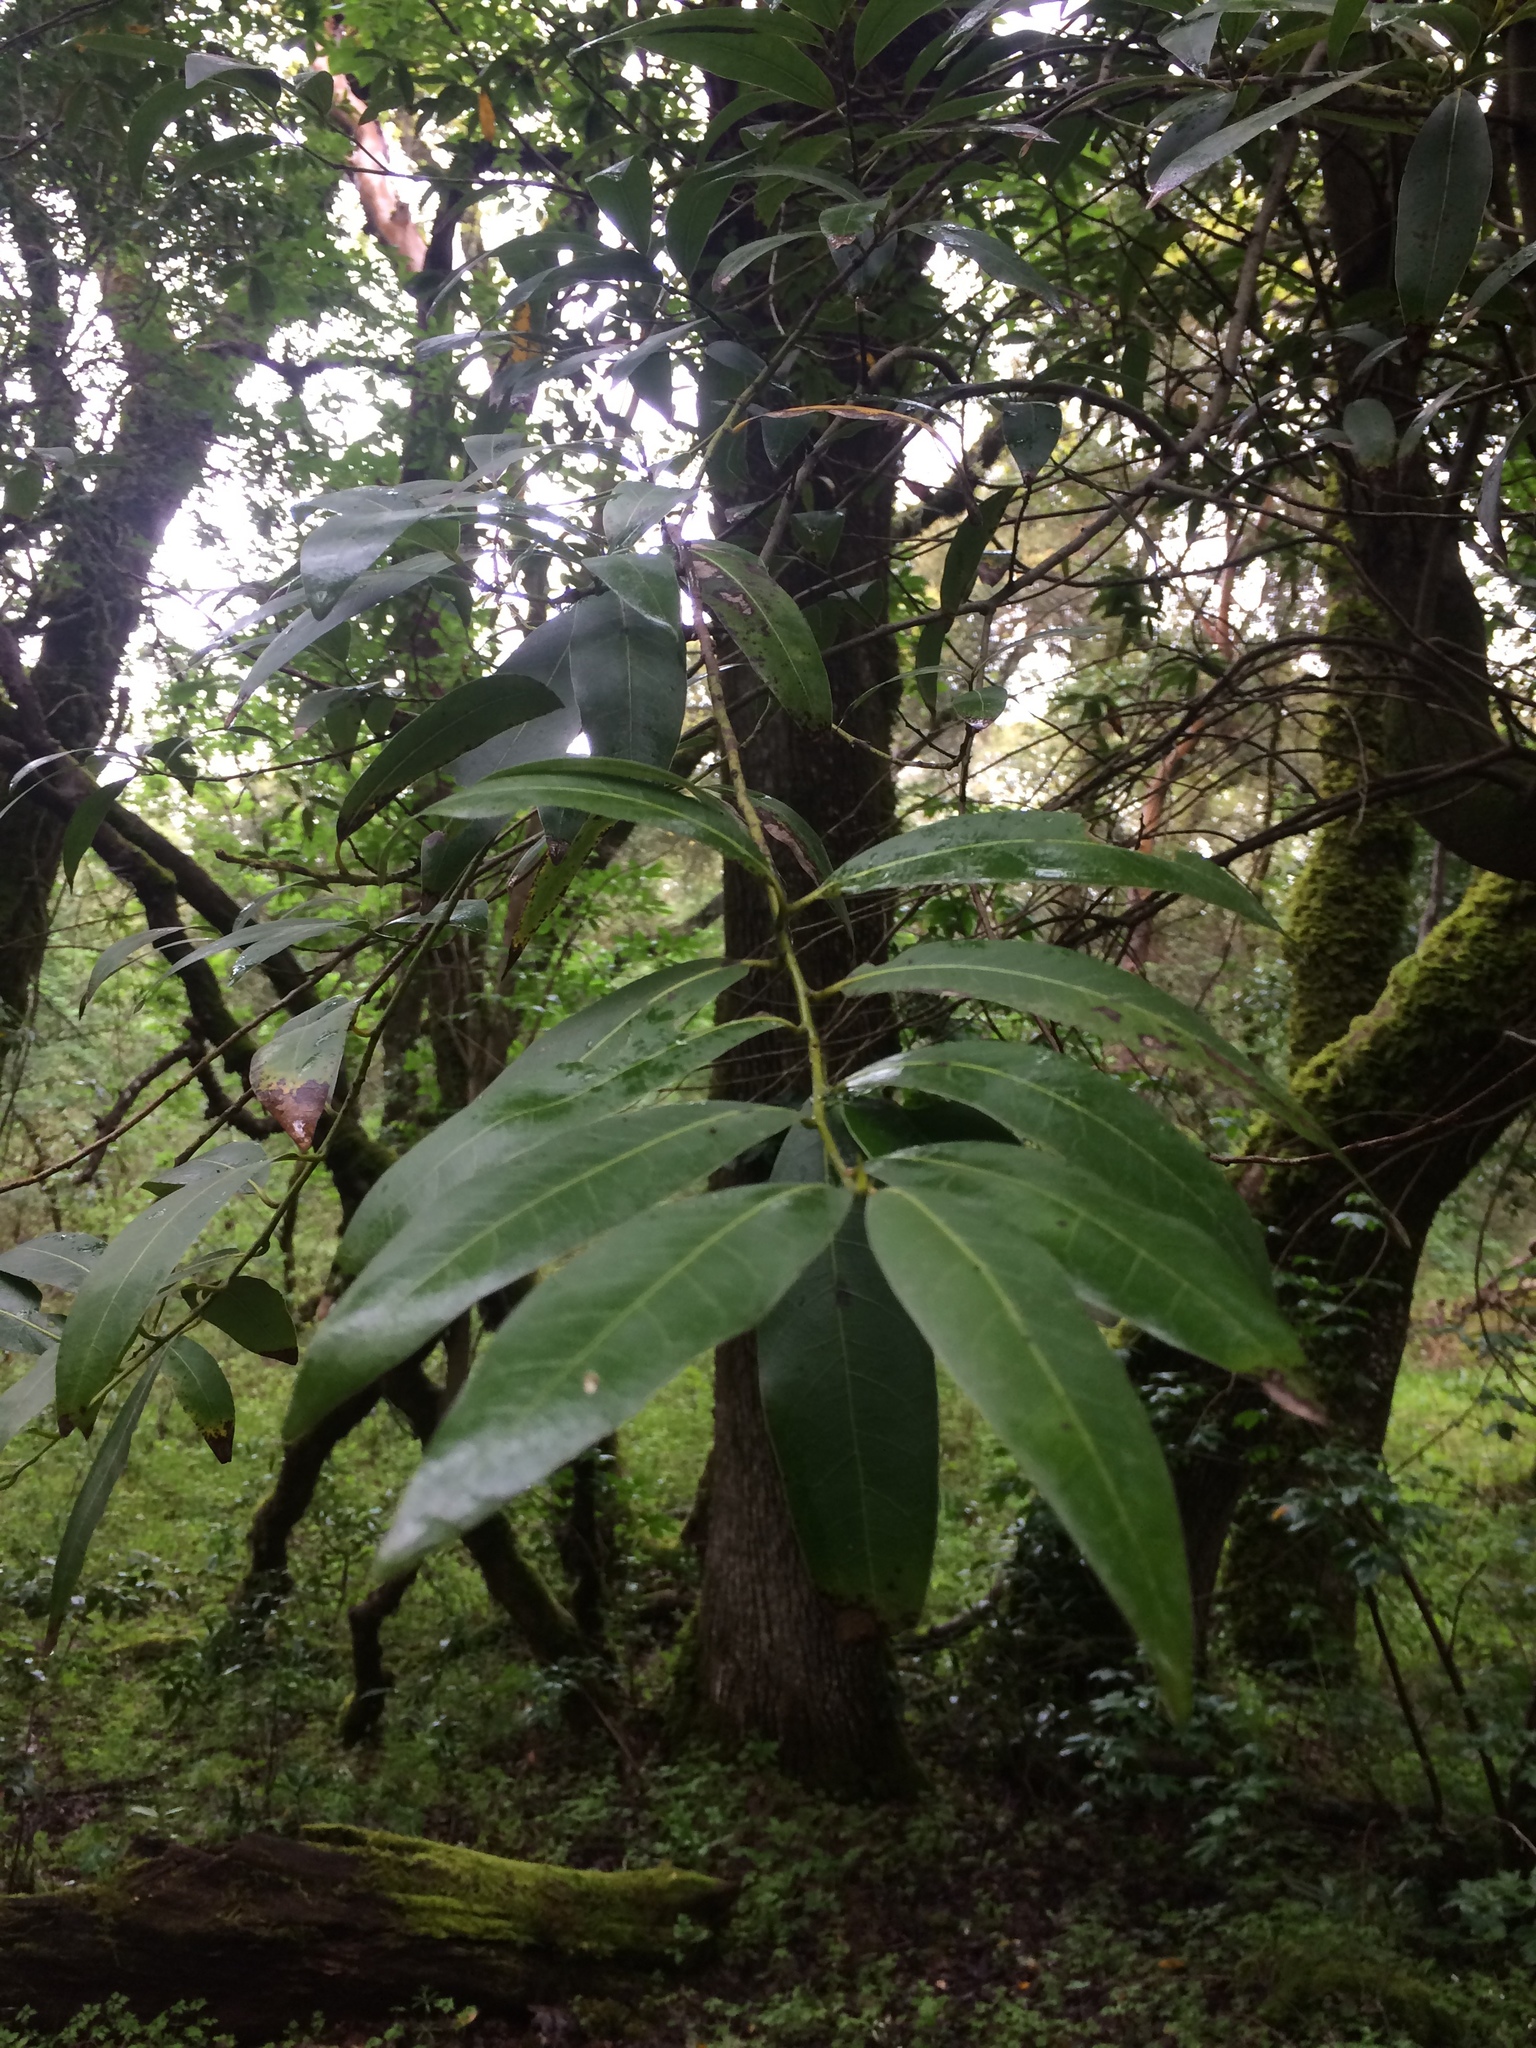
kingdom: Plantae
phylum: Tracheophyta
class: Magnoliopsida
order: Laurales
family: Lauraceae
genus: Umbellularia
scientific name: Umbellularia californica
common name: California bay
